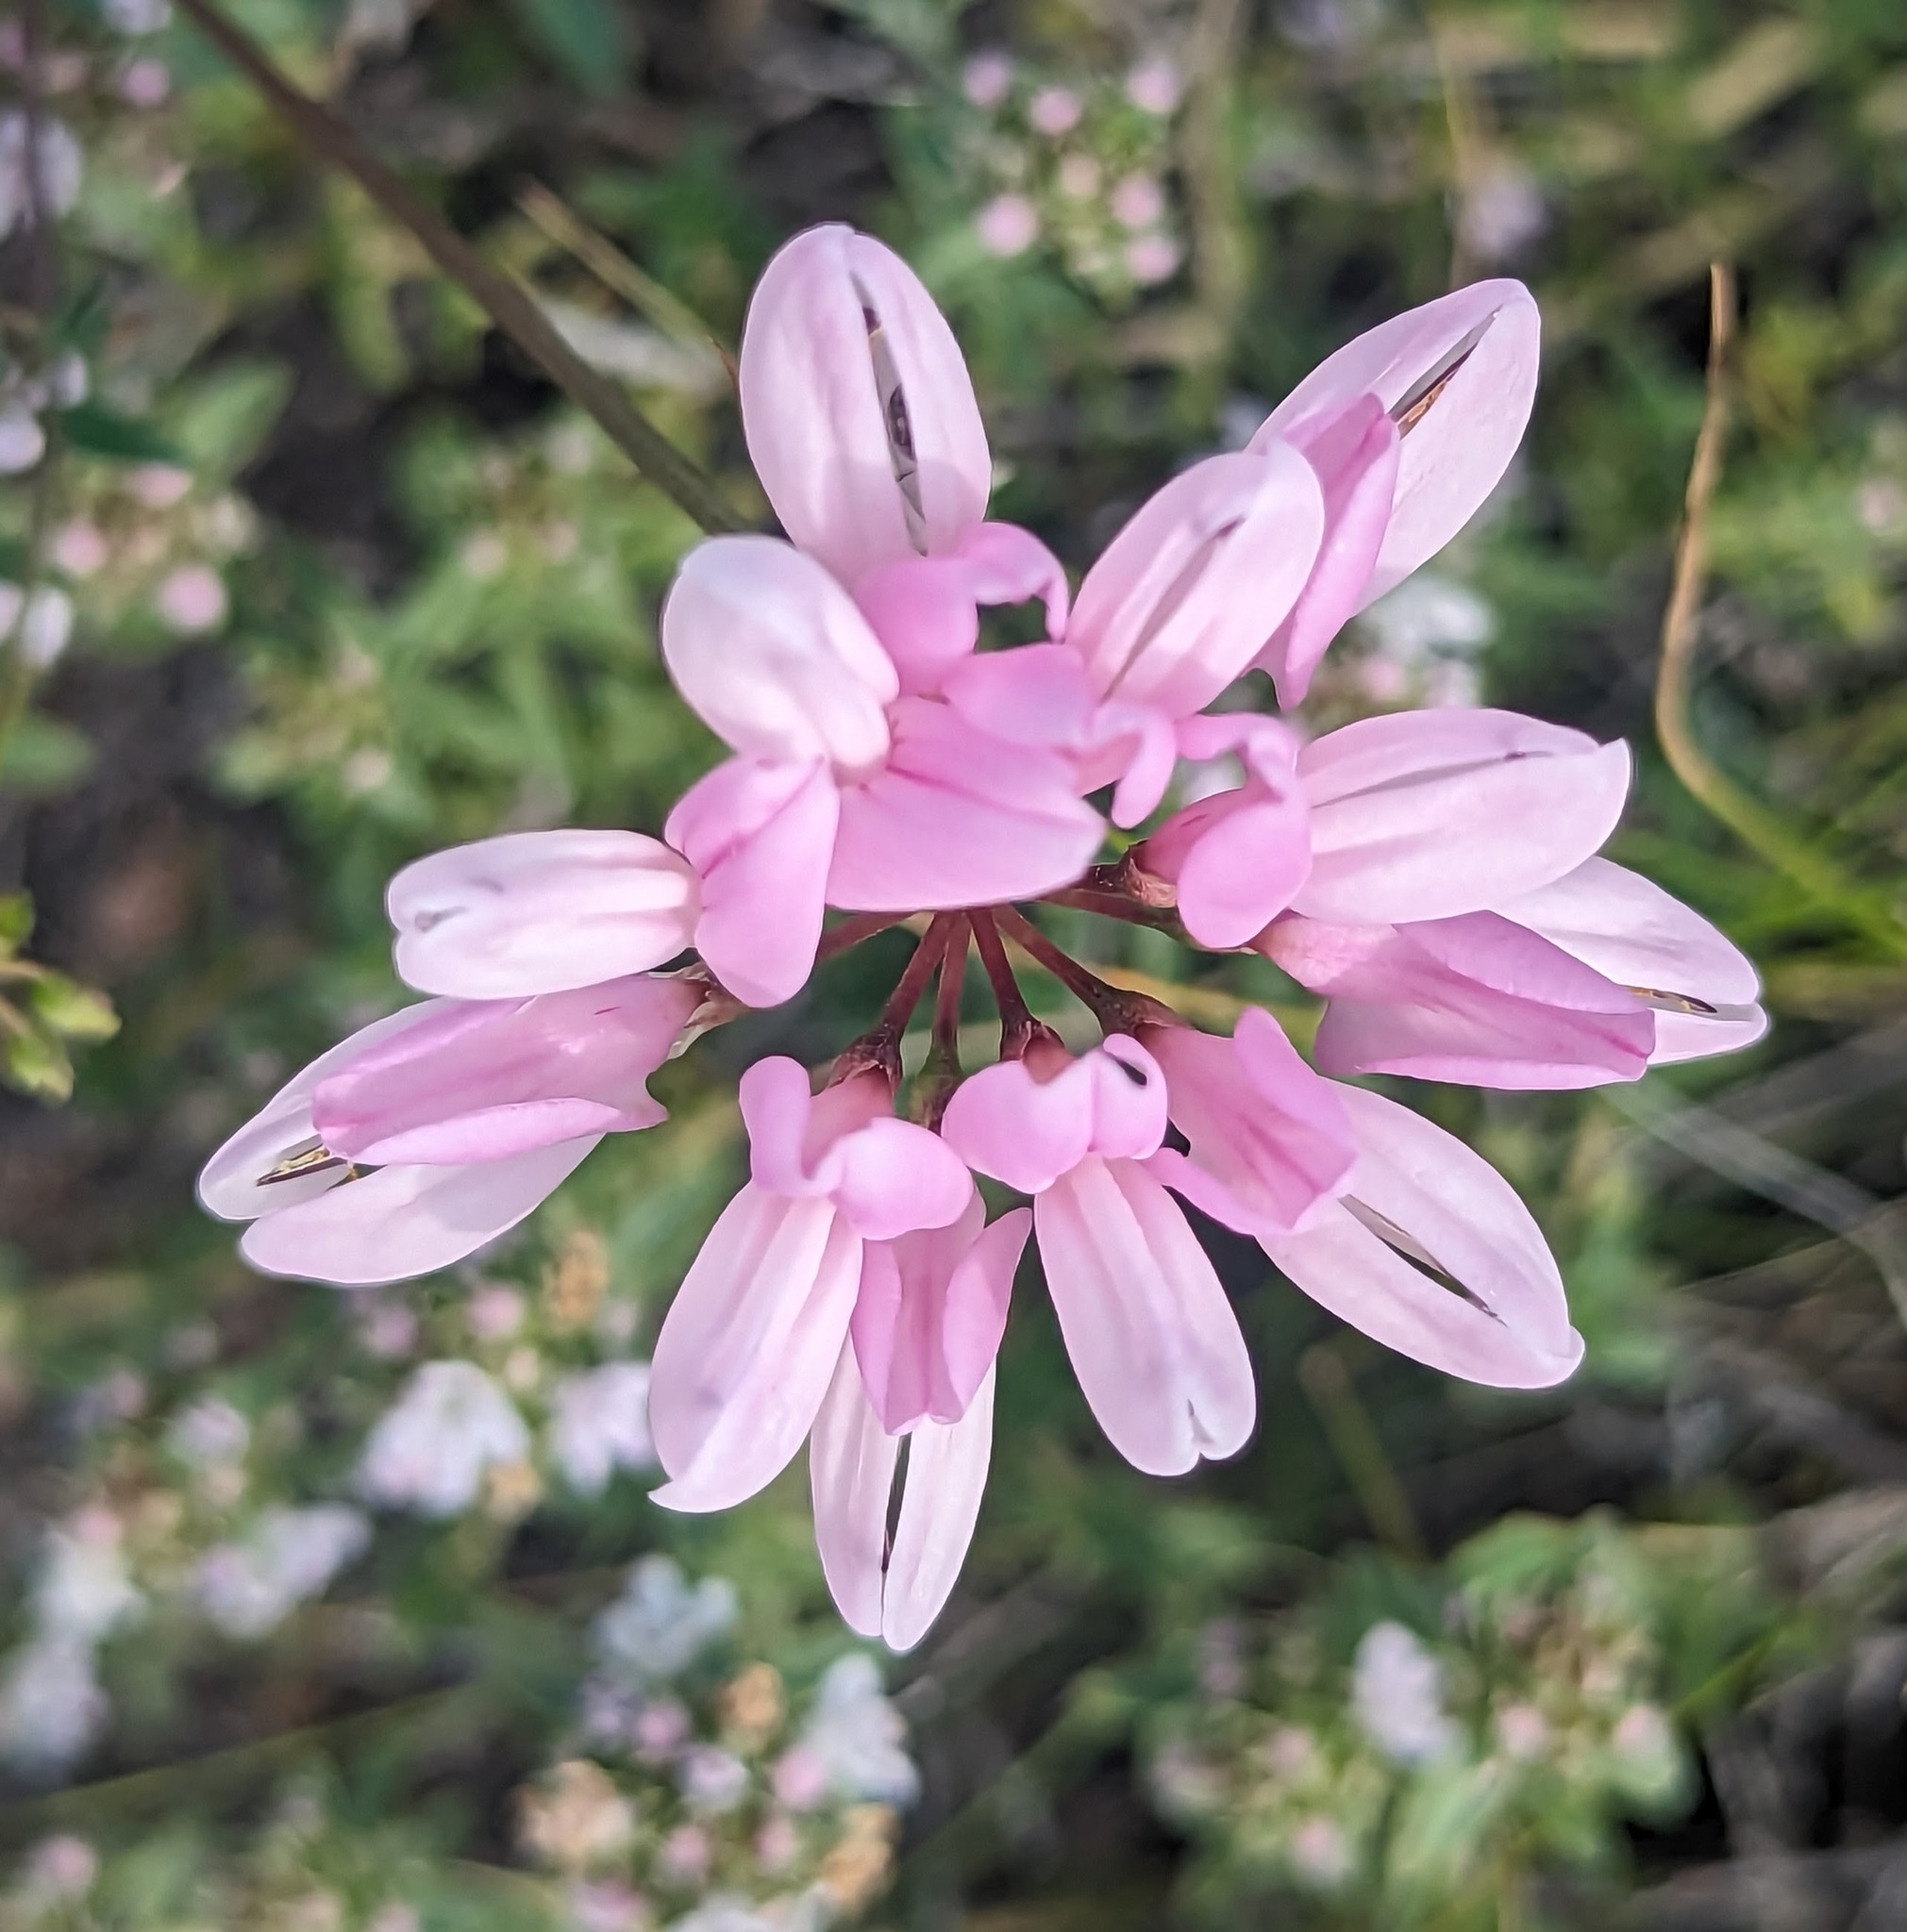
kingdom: Plantae
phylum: Tracheophyta
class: Magnoliopsida
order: Fabales
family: Fabaceae
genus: Coronilla
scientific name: Coronilla varia
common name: Crownvetch
